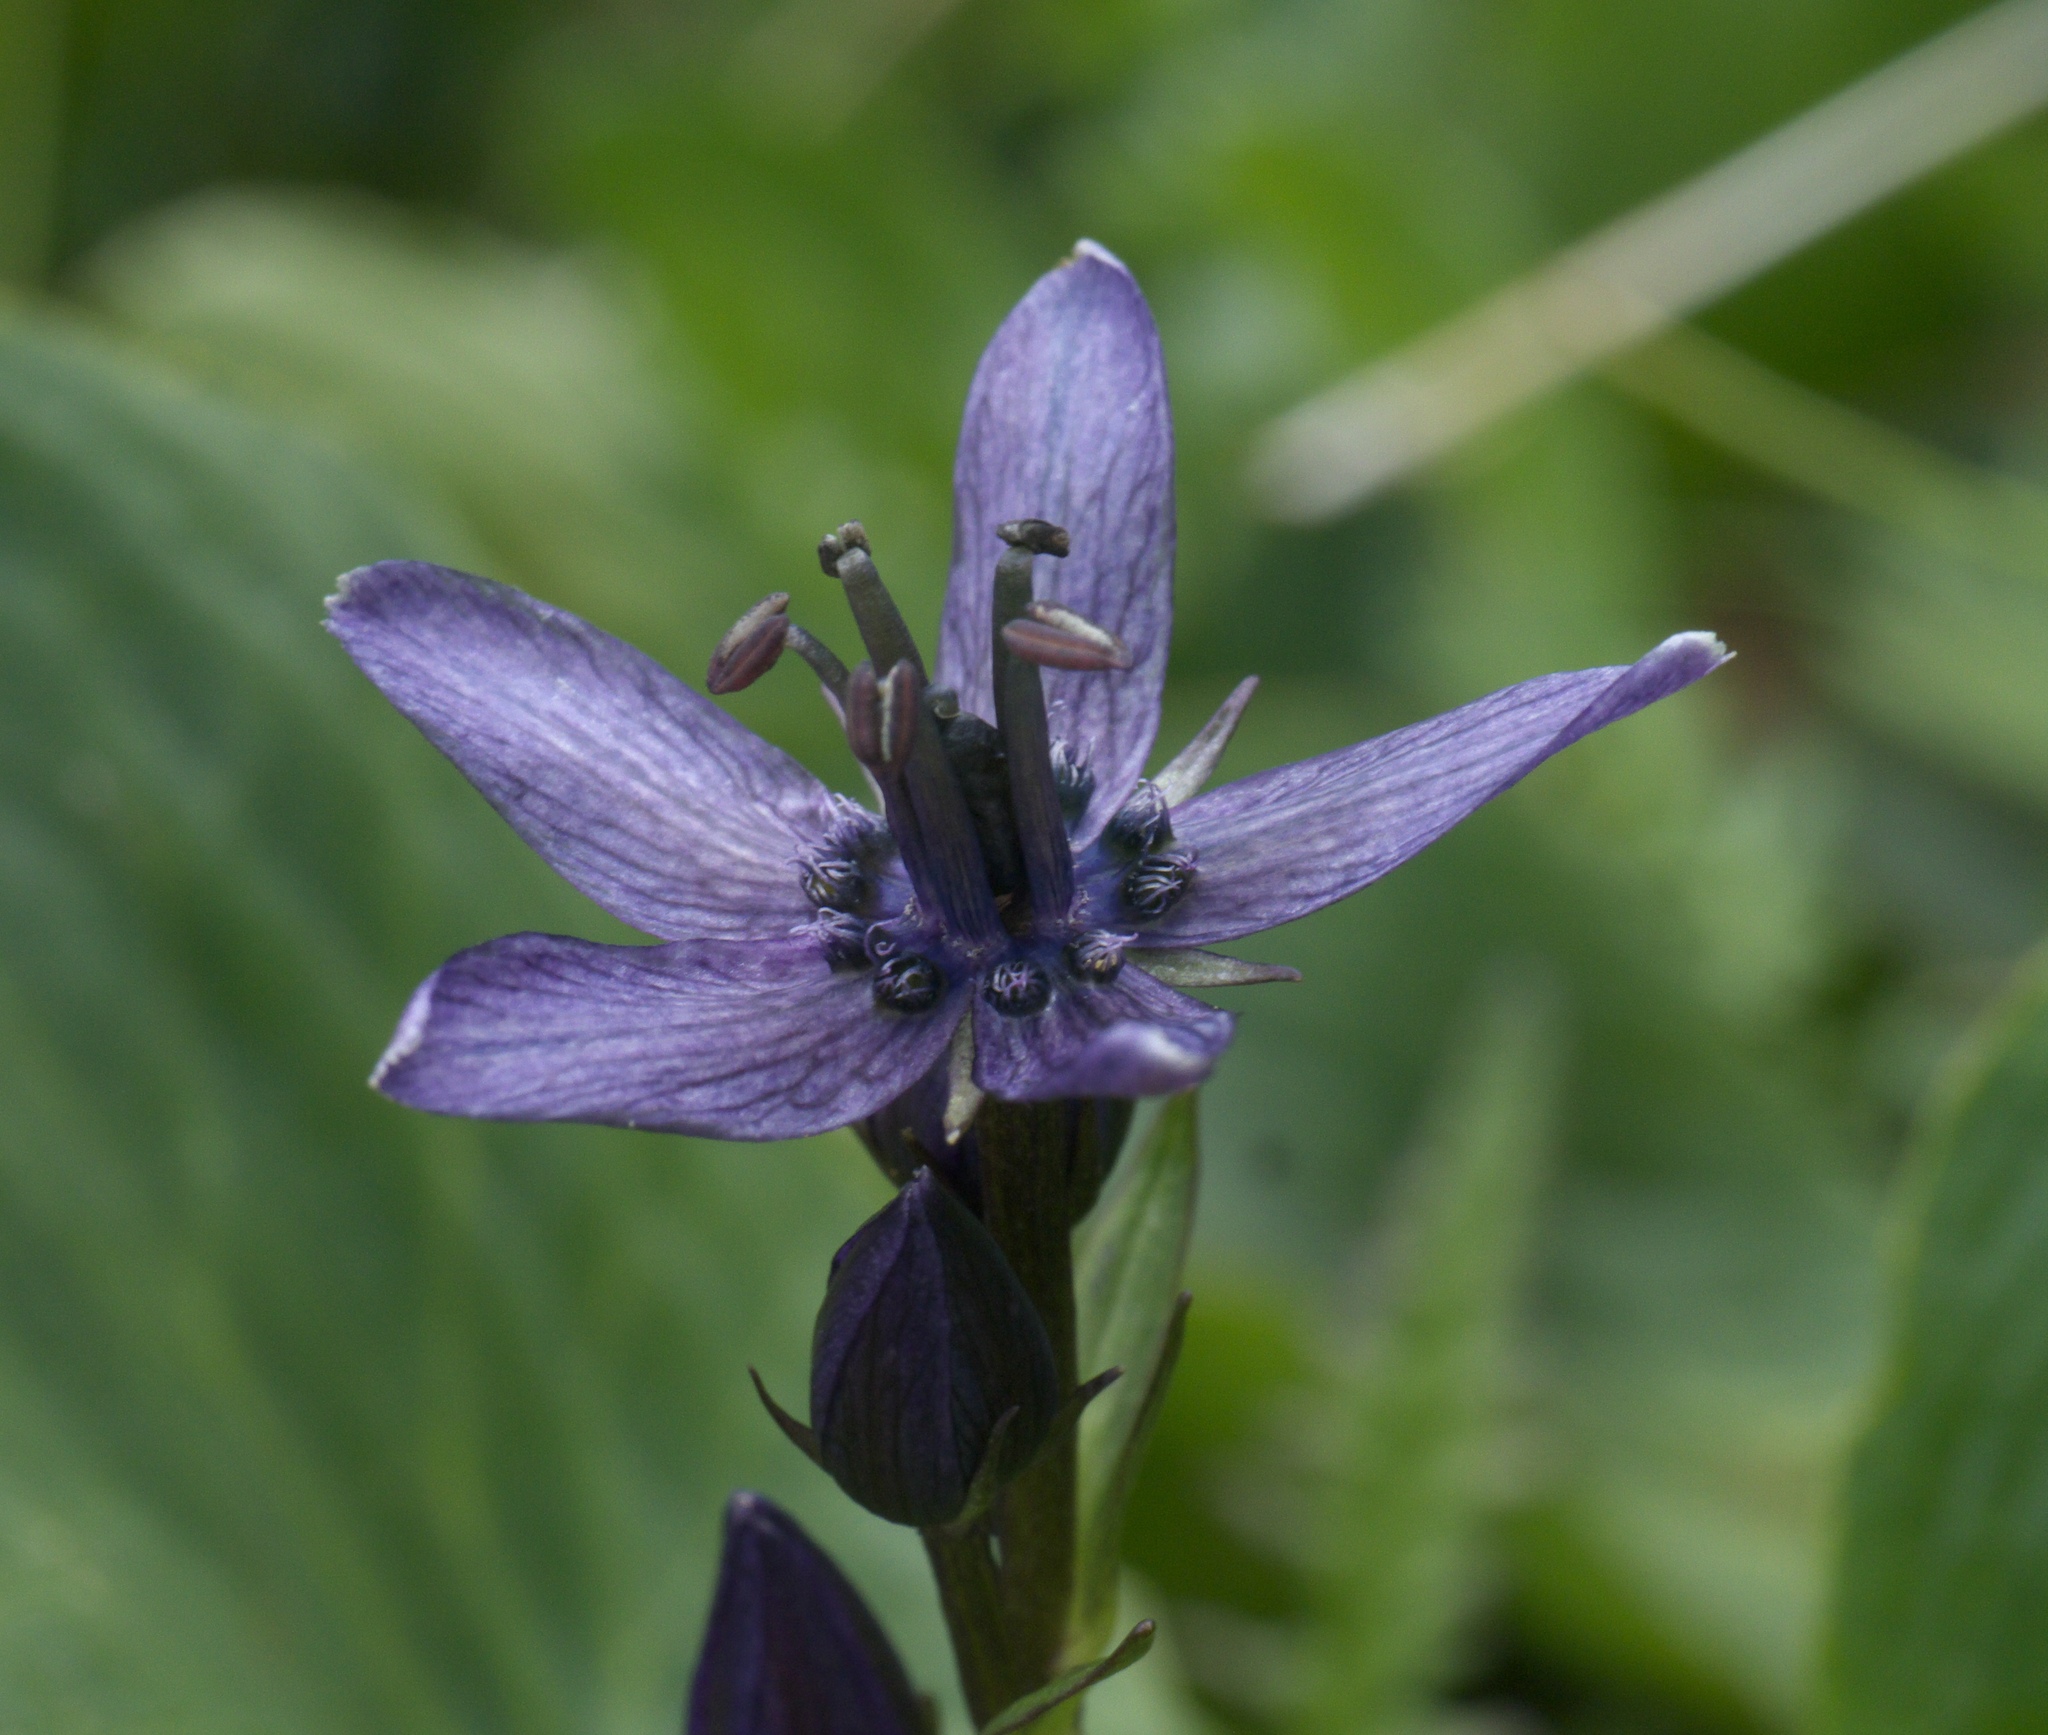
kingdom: Plantae
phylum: Tracheophyta
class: Magnoliopsida
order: Gentianales
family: Gentianaceae
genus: Swertia
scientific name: Swertia perennis
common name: Alpine bog swertia
